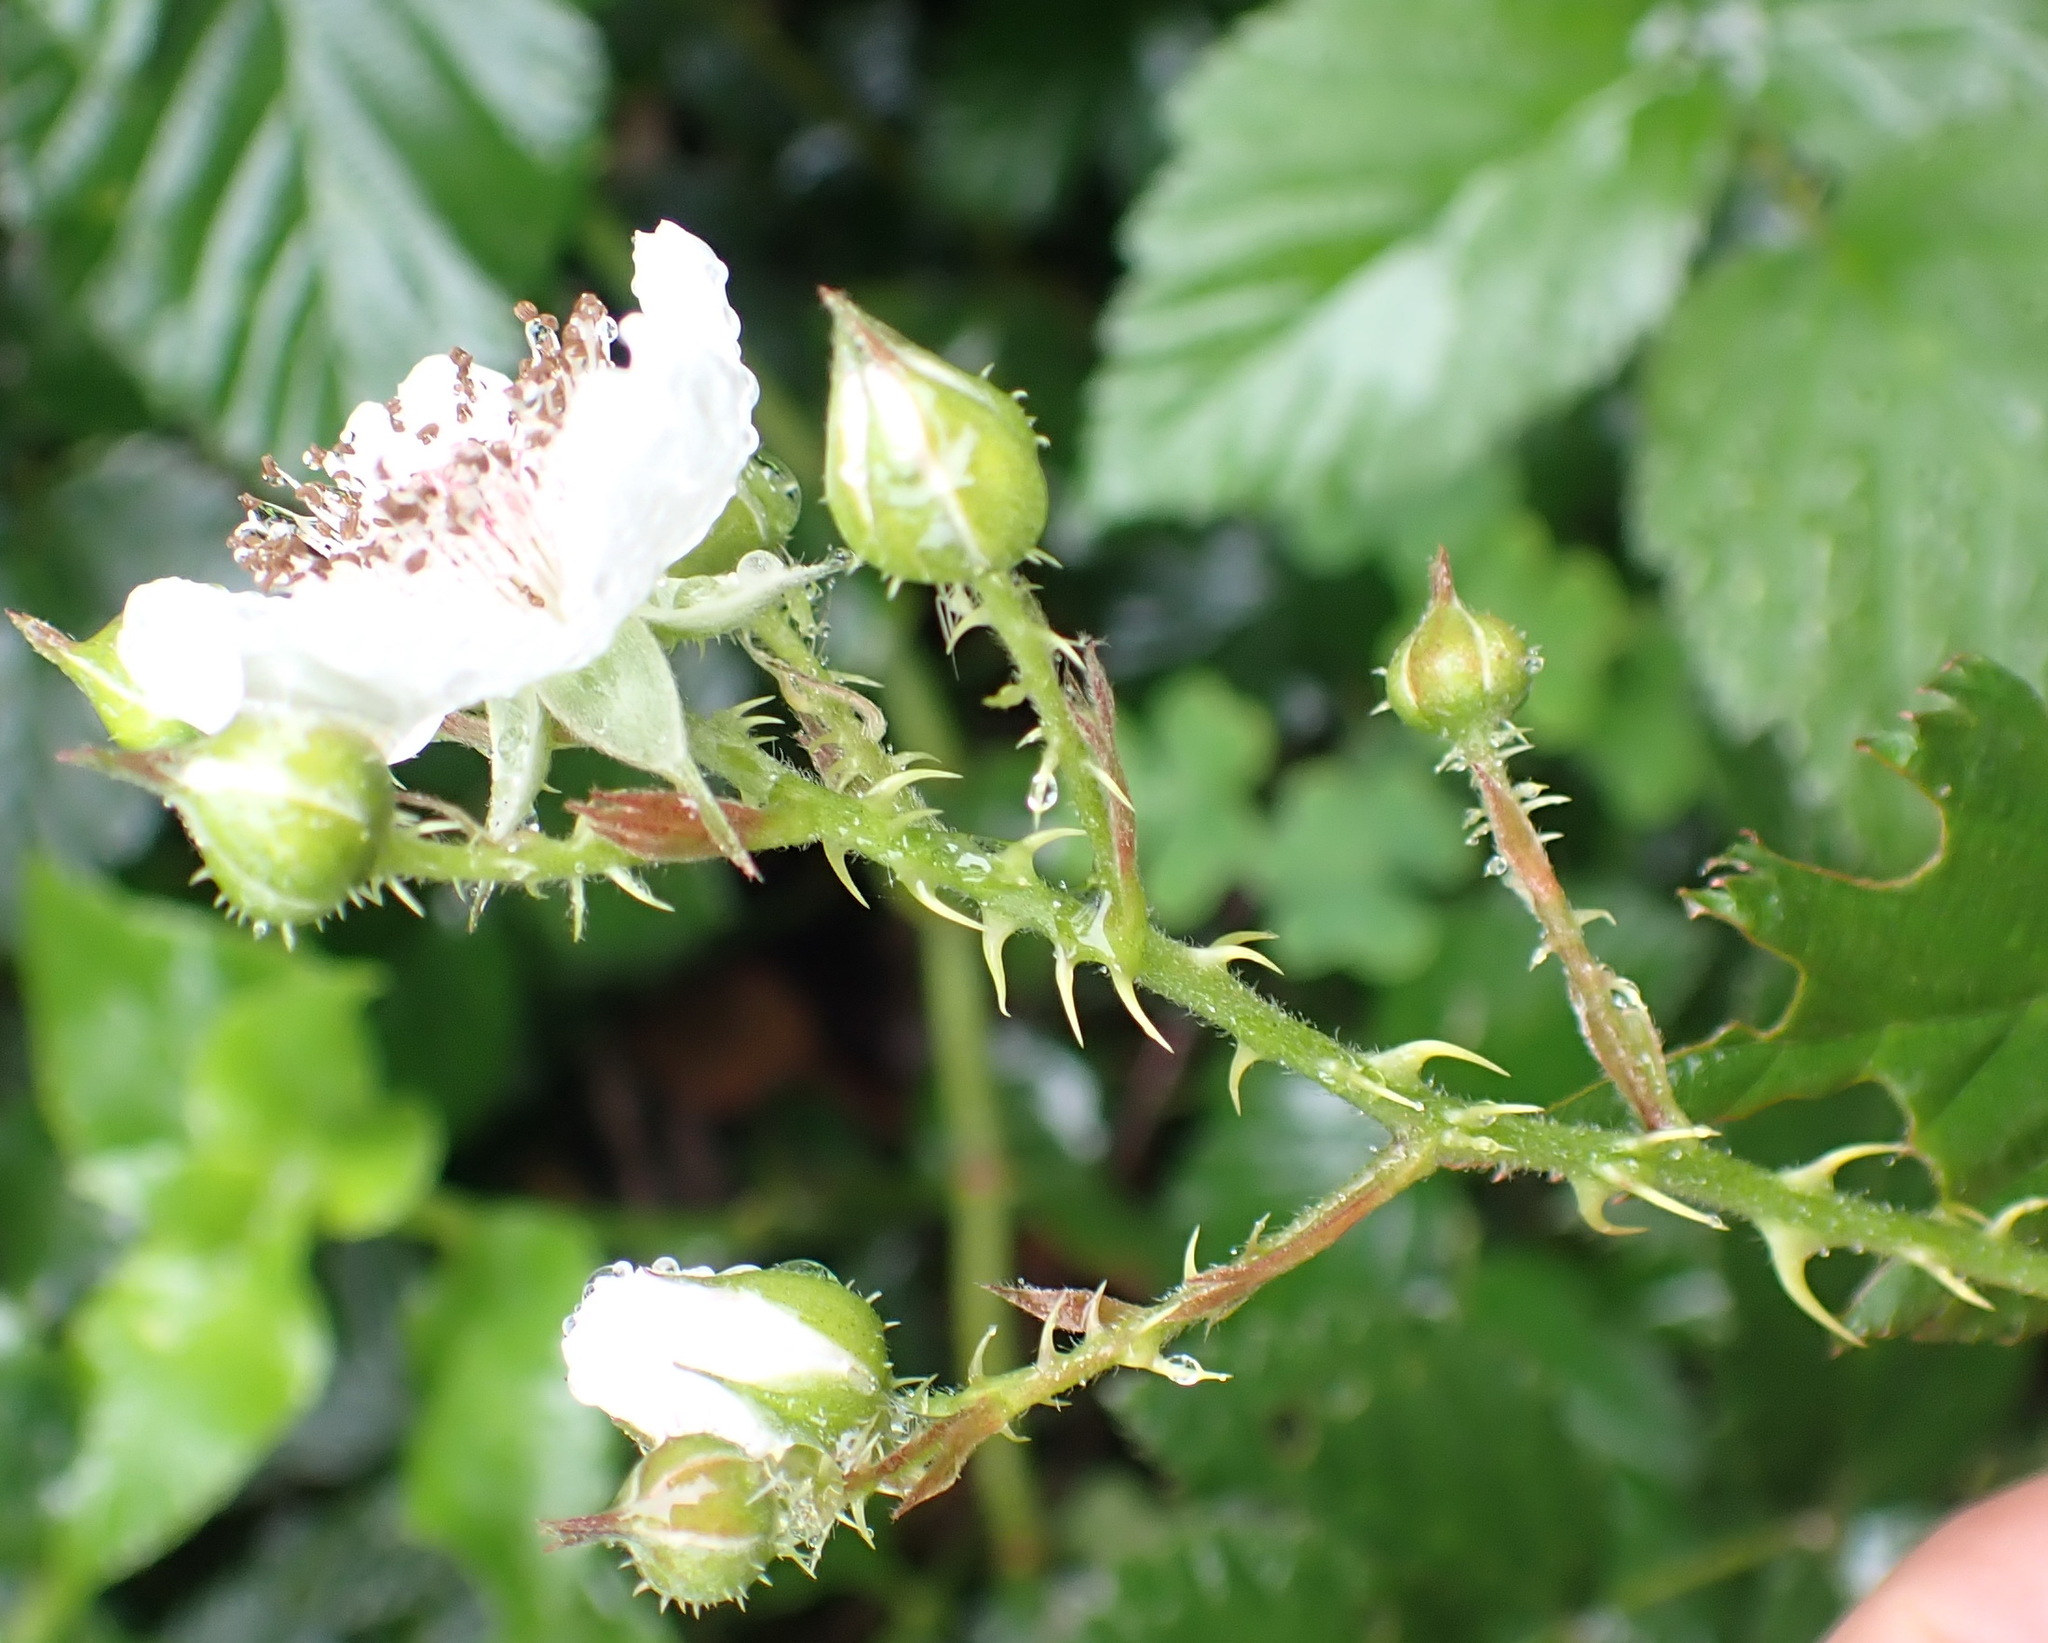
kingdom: Plantae
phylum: Tracheophyta
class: Magnoliopsida
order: Rosales
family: Rosaceae
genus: Rubus
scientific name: Rubus pinnatus
